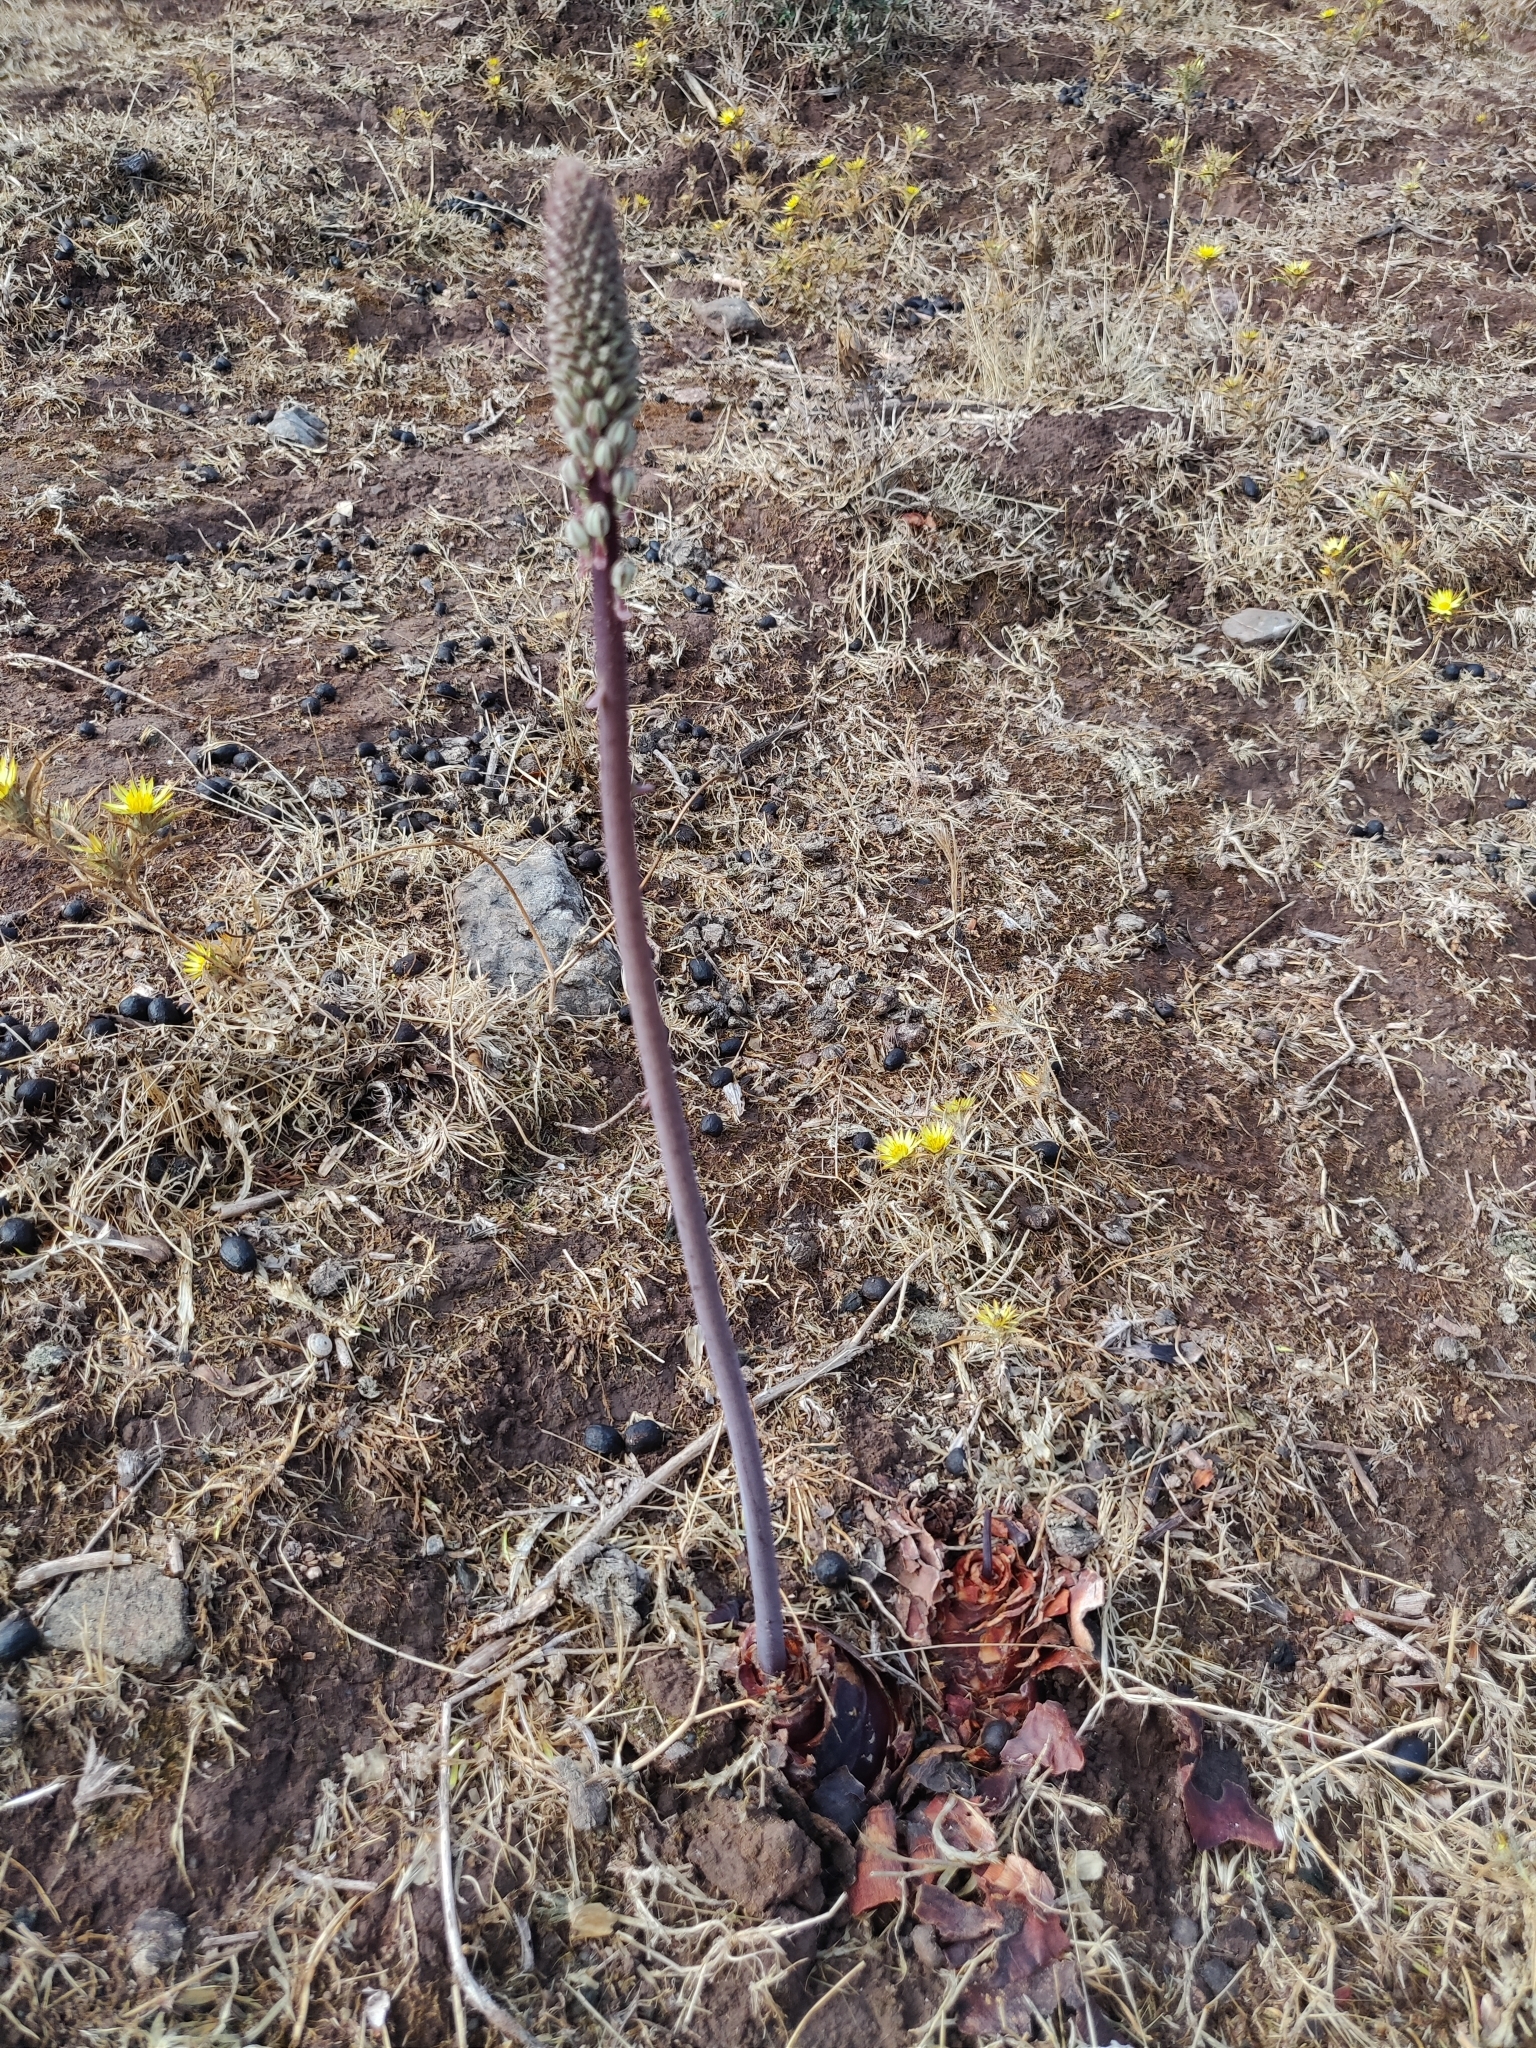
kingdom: Plantae
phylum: Tracheophyta
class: Liliopsida
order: Asparagales
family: Asparagaceae
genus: Drimia
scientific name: Drimia maritima
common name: Maritime squill
